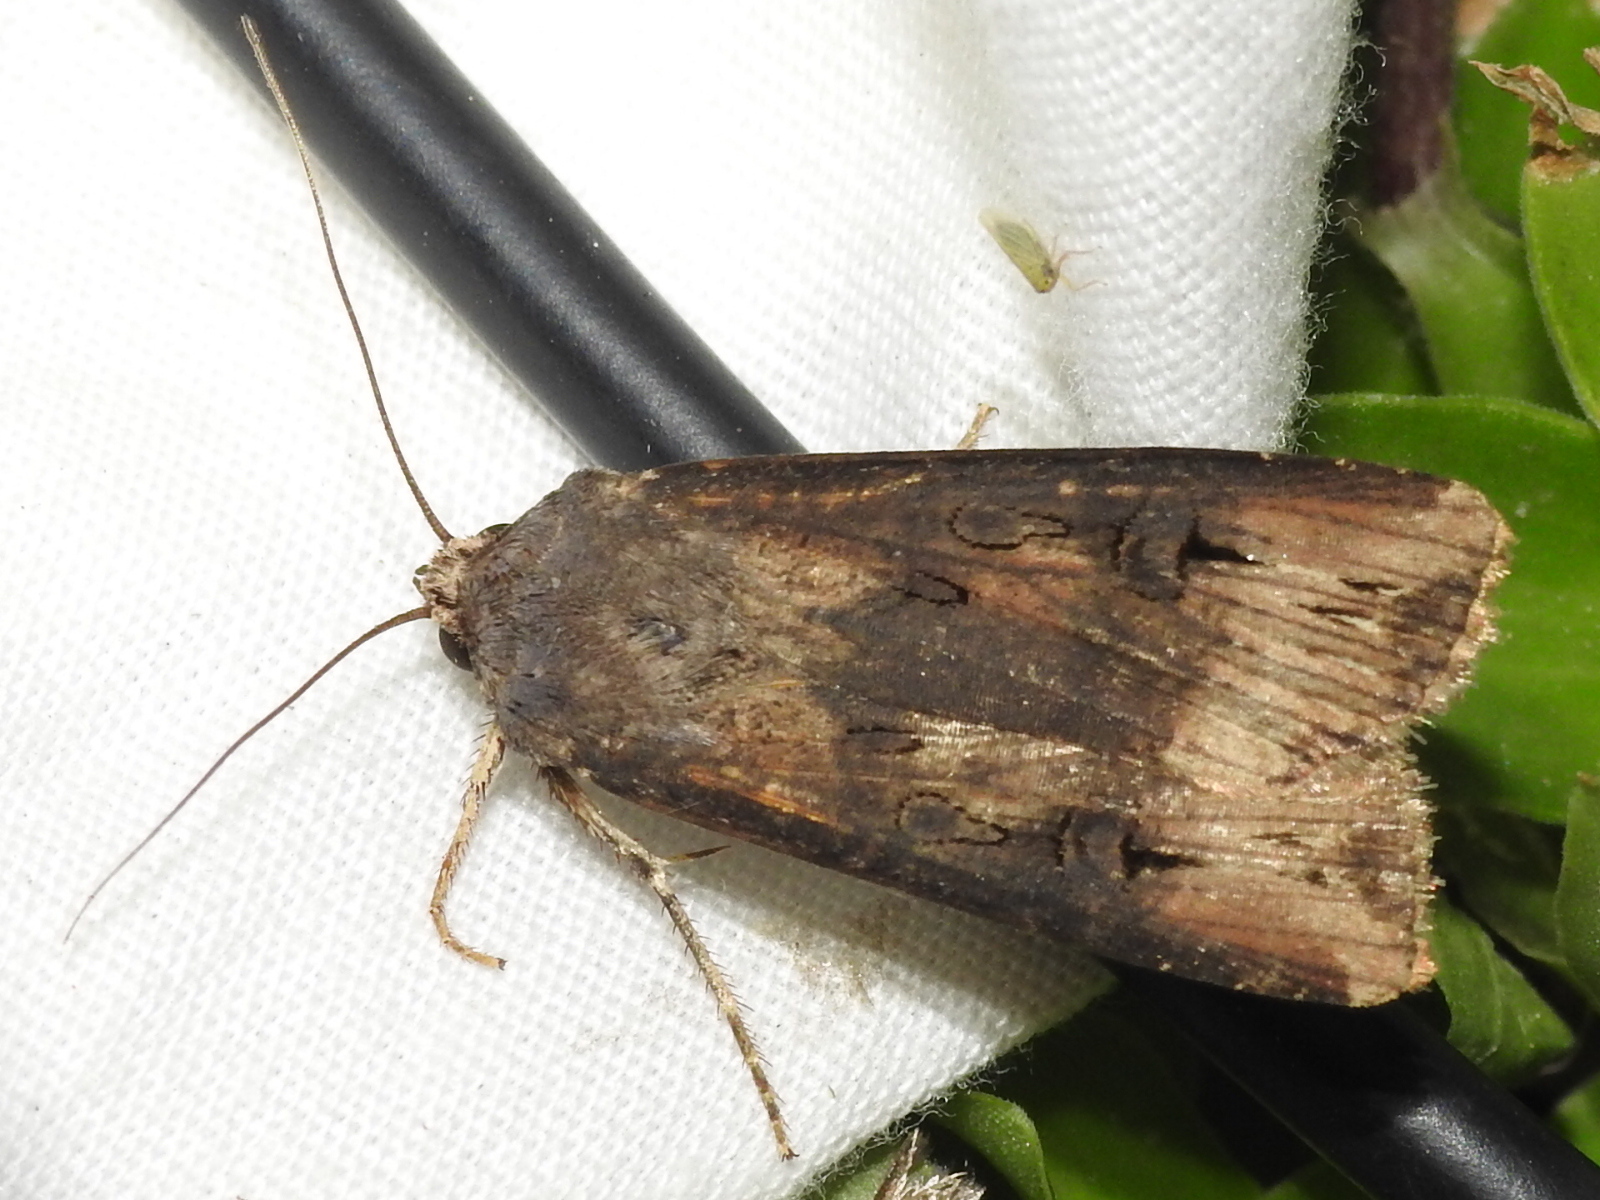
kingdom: Animalia
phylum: Arthropoda
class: Insecta
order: Lepidoptera
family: Noctuidae
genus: Agrotis
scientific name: Agrotis ipsilon
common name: Dark sword-grass
